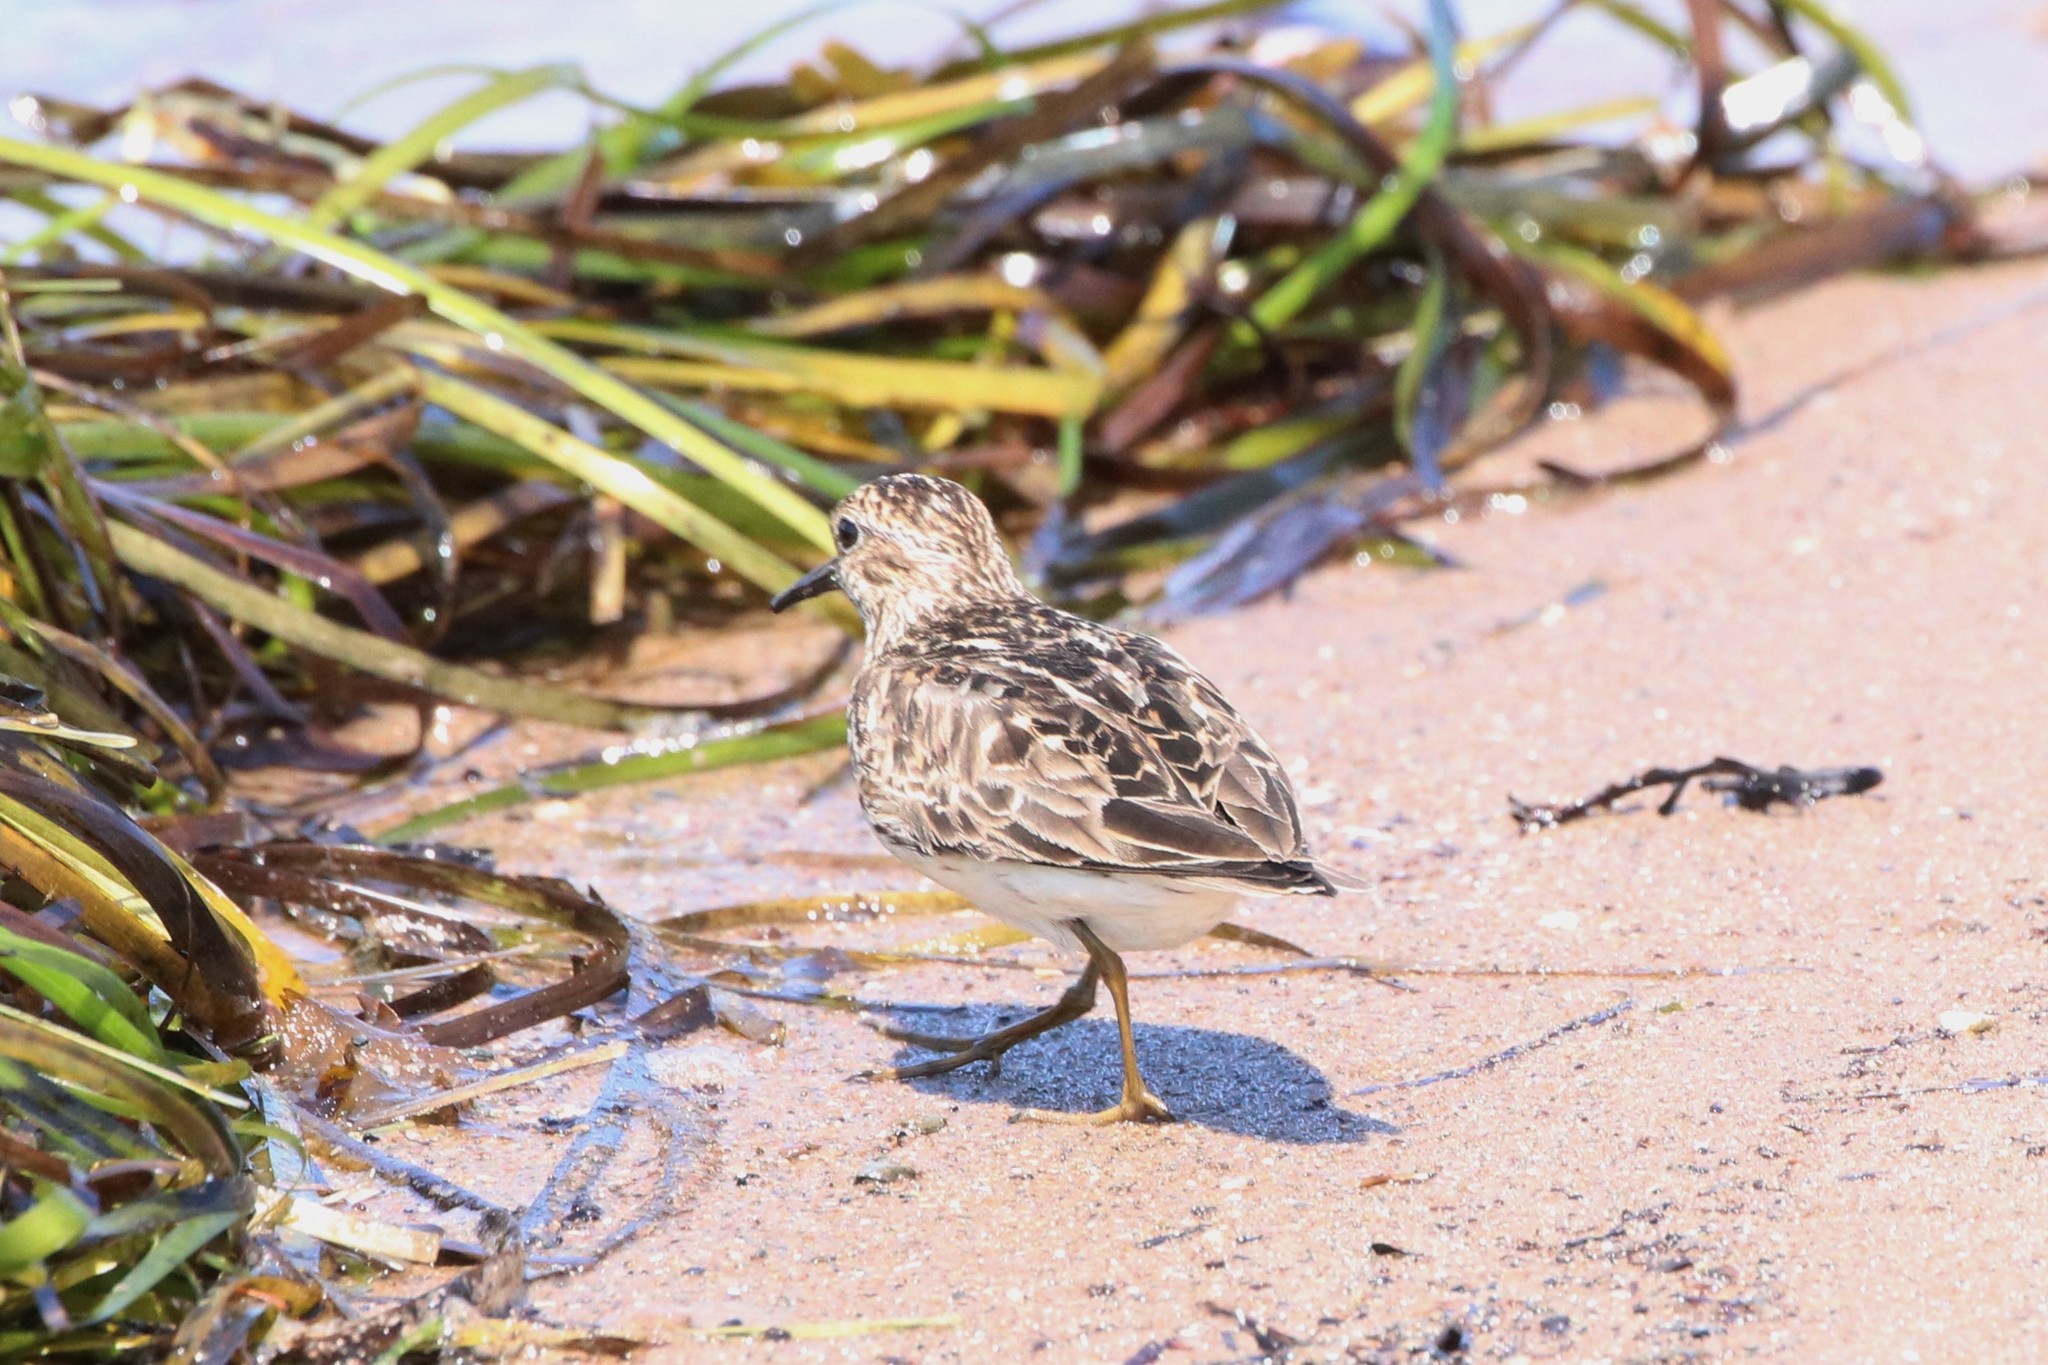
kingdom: Animalia
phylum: Chordata
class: Aves
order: Charadriiformes
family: Scolopacidae
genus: Calidris
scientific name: Calidris minutilla
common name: Least sandpiper
